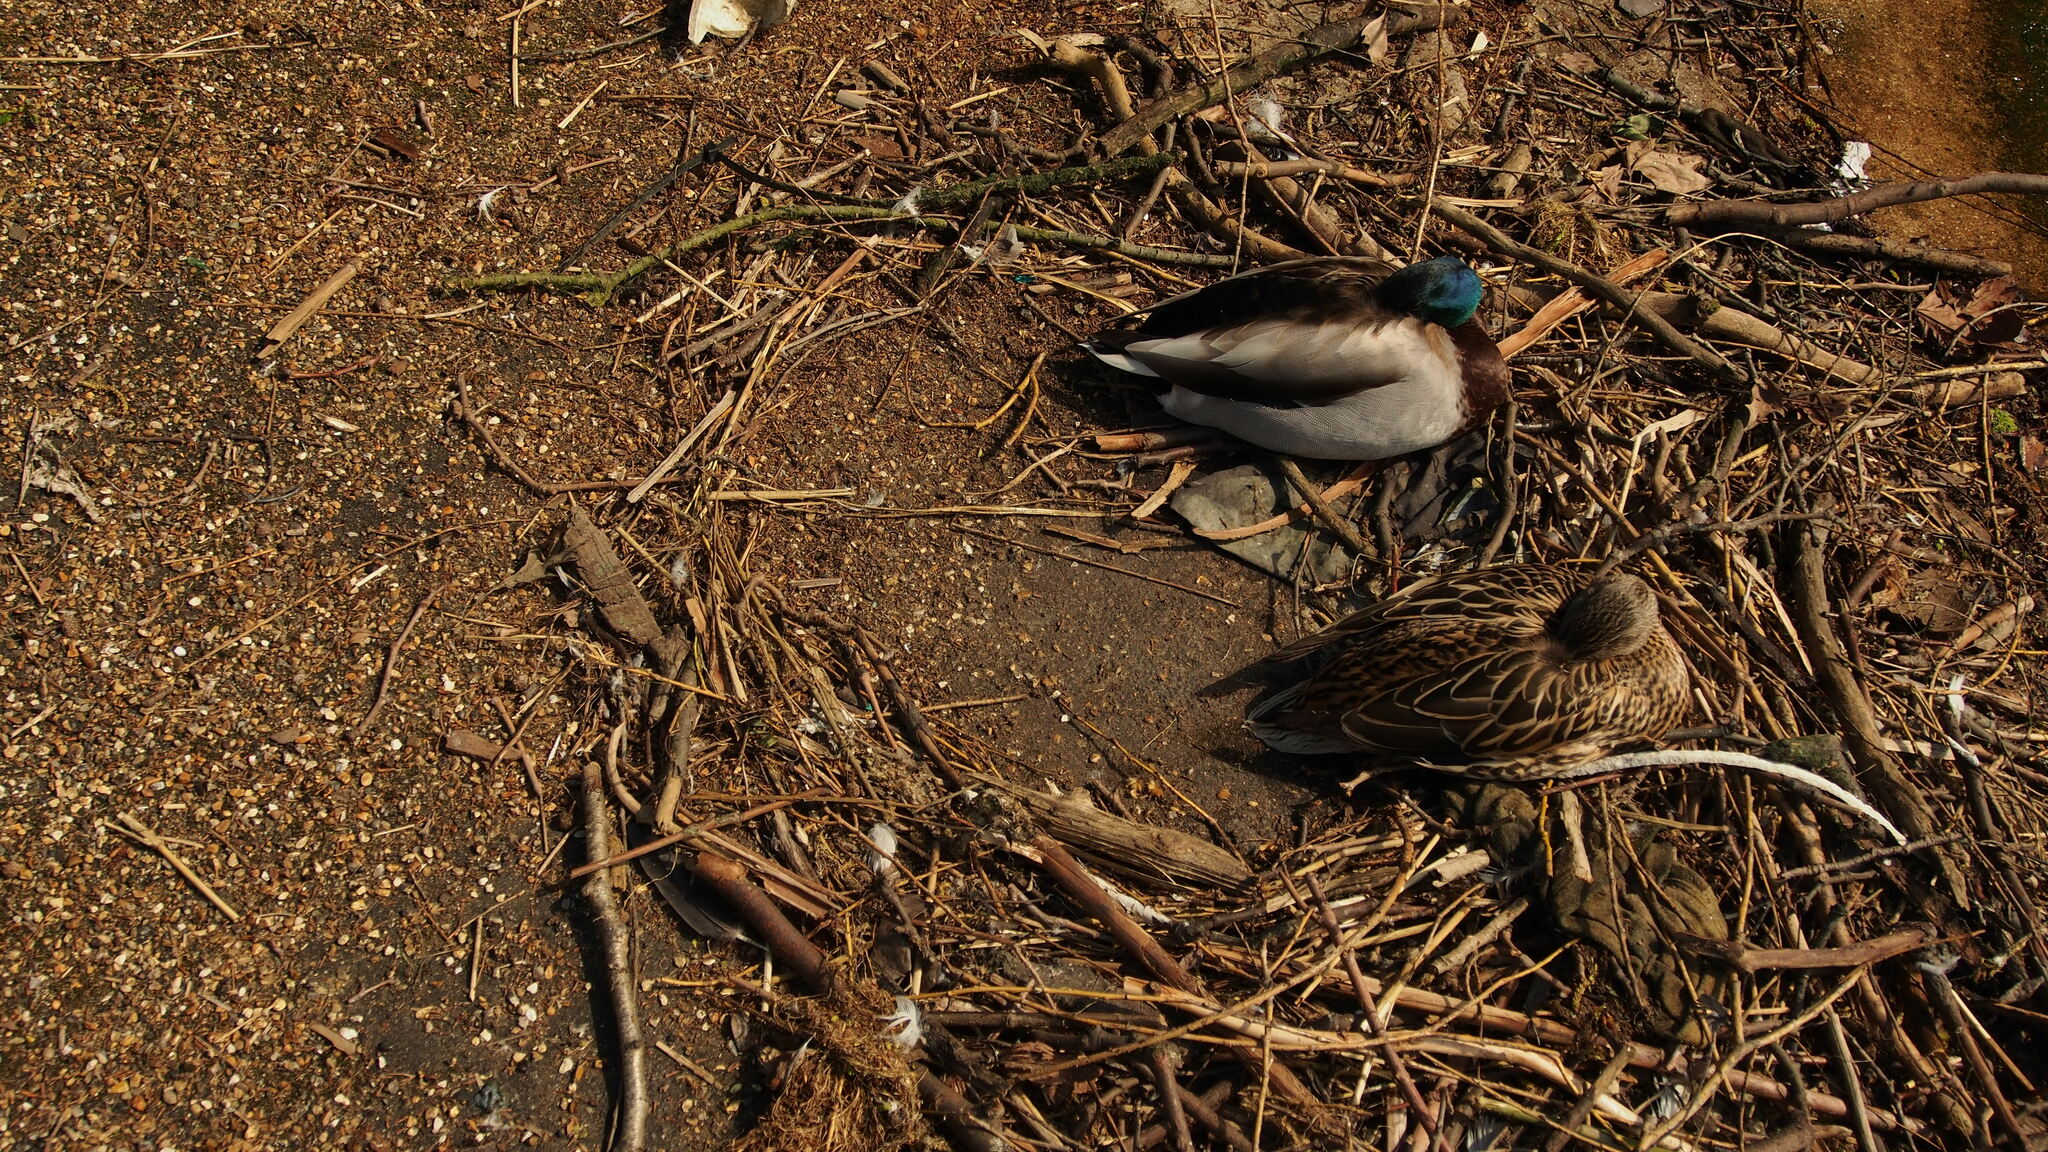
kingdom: Animalia
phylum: Chordata
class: Aves
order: Anseriformes
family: Anatidae
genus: Anas
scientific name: Anas platyrhynchos
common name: Mallard
